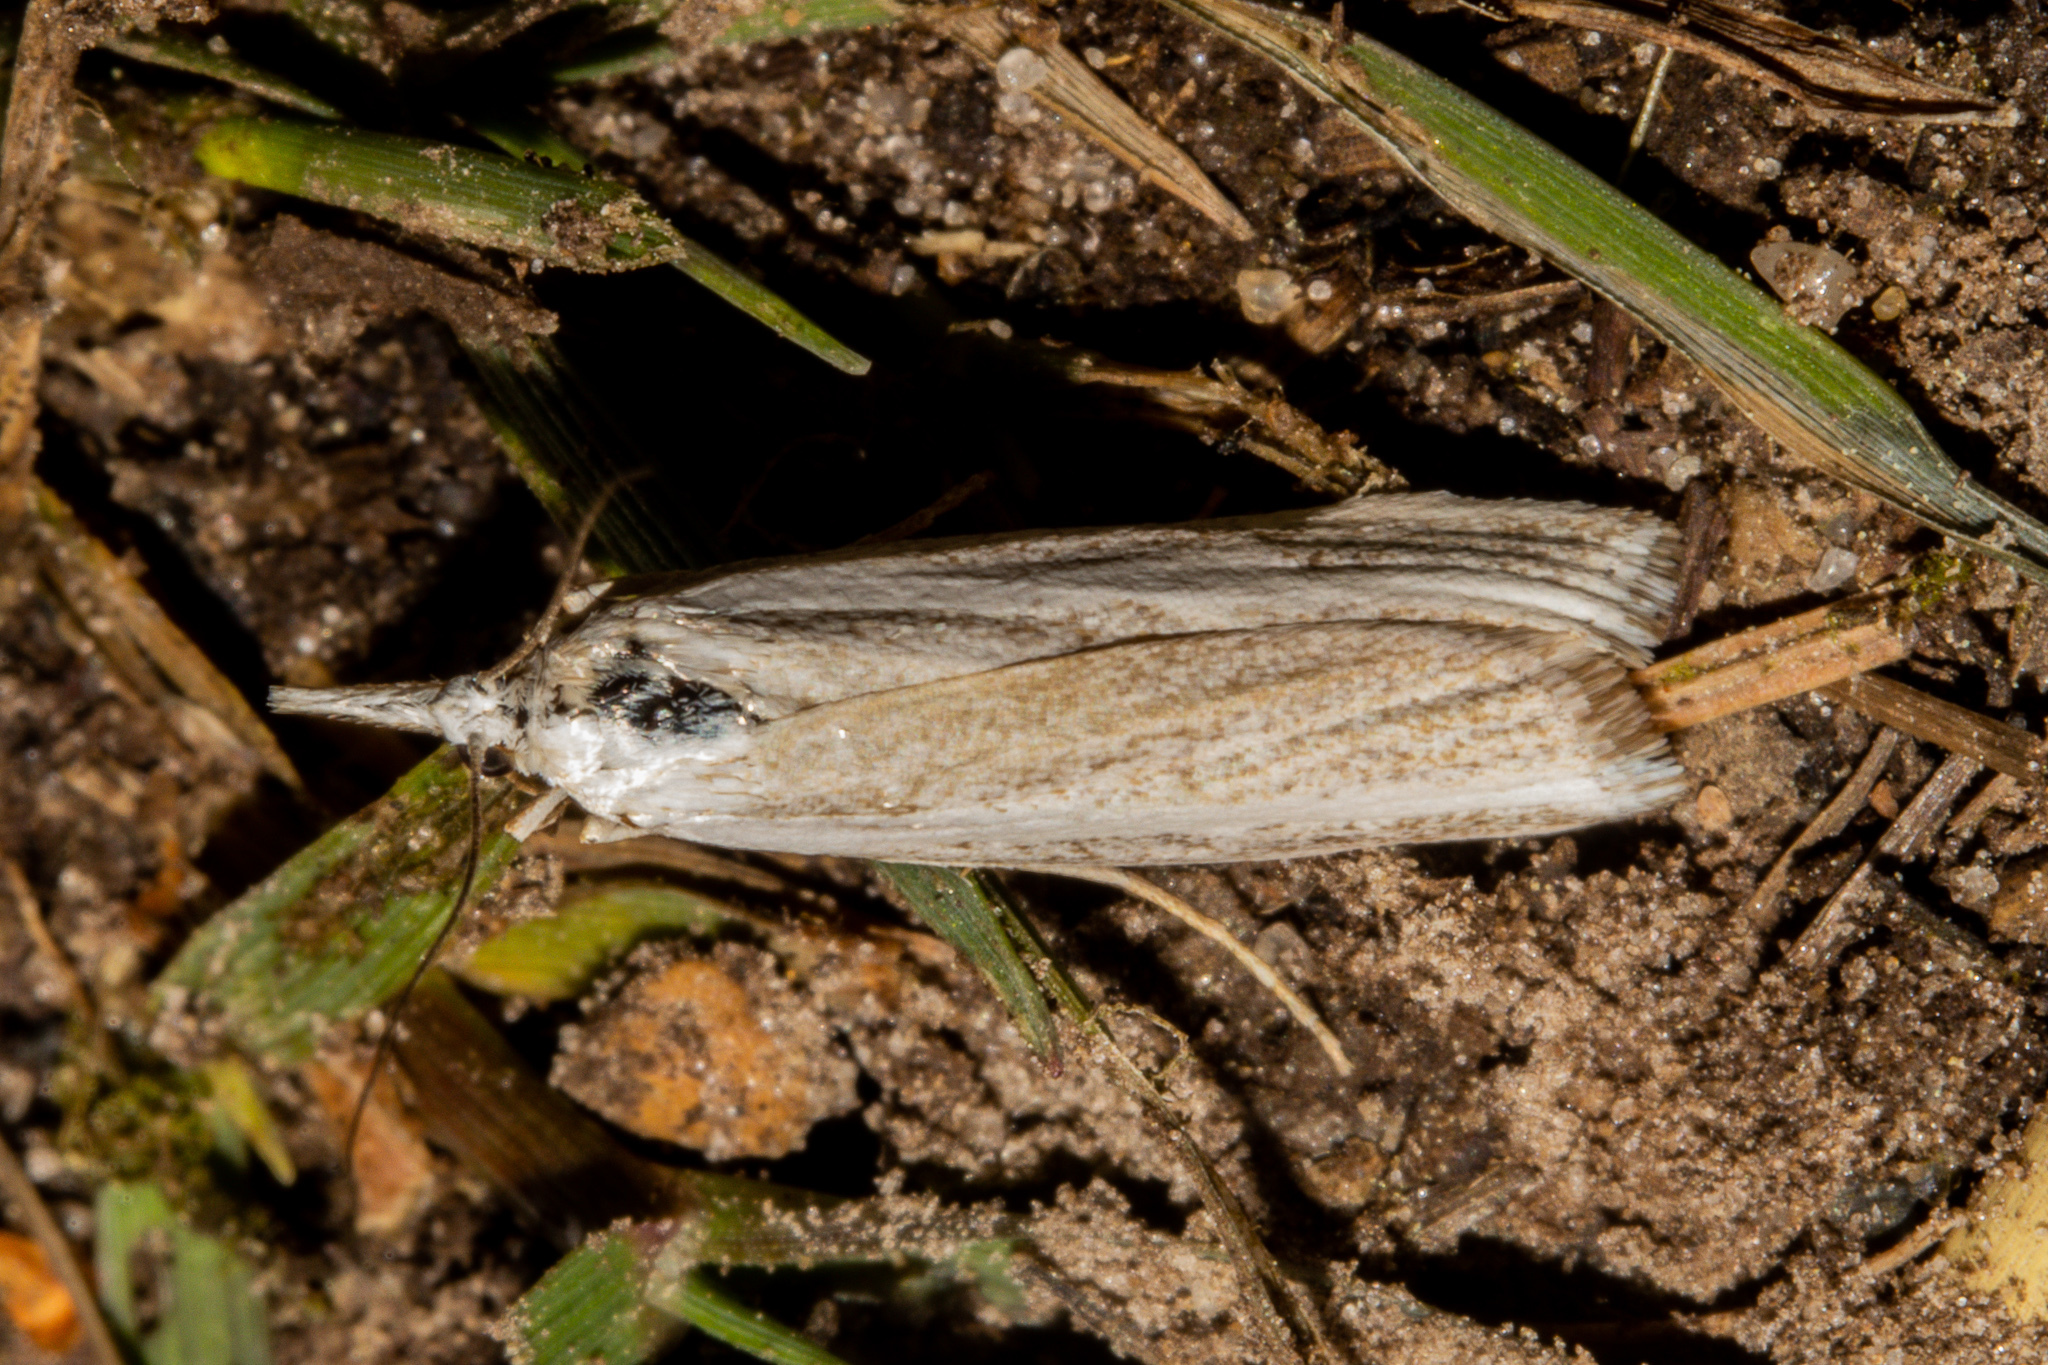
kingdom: Animalia
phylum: Arthropoda
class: Insecta
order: Lepidoptera
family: Crambidae
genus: Orocrambus
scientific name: Orocrambus vittellus
